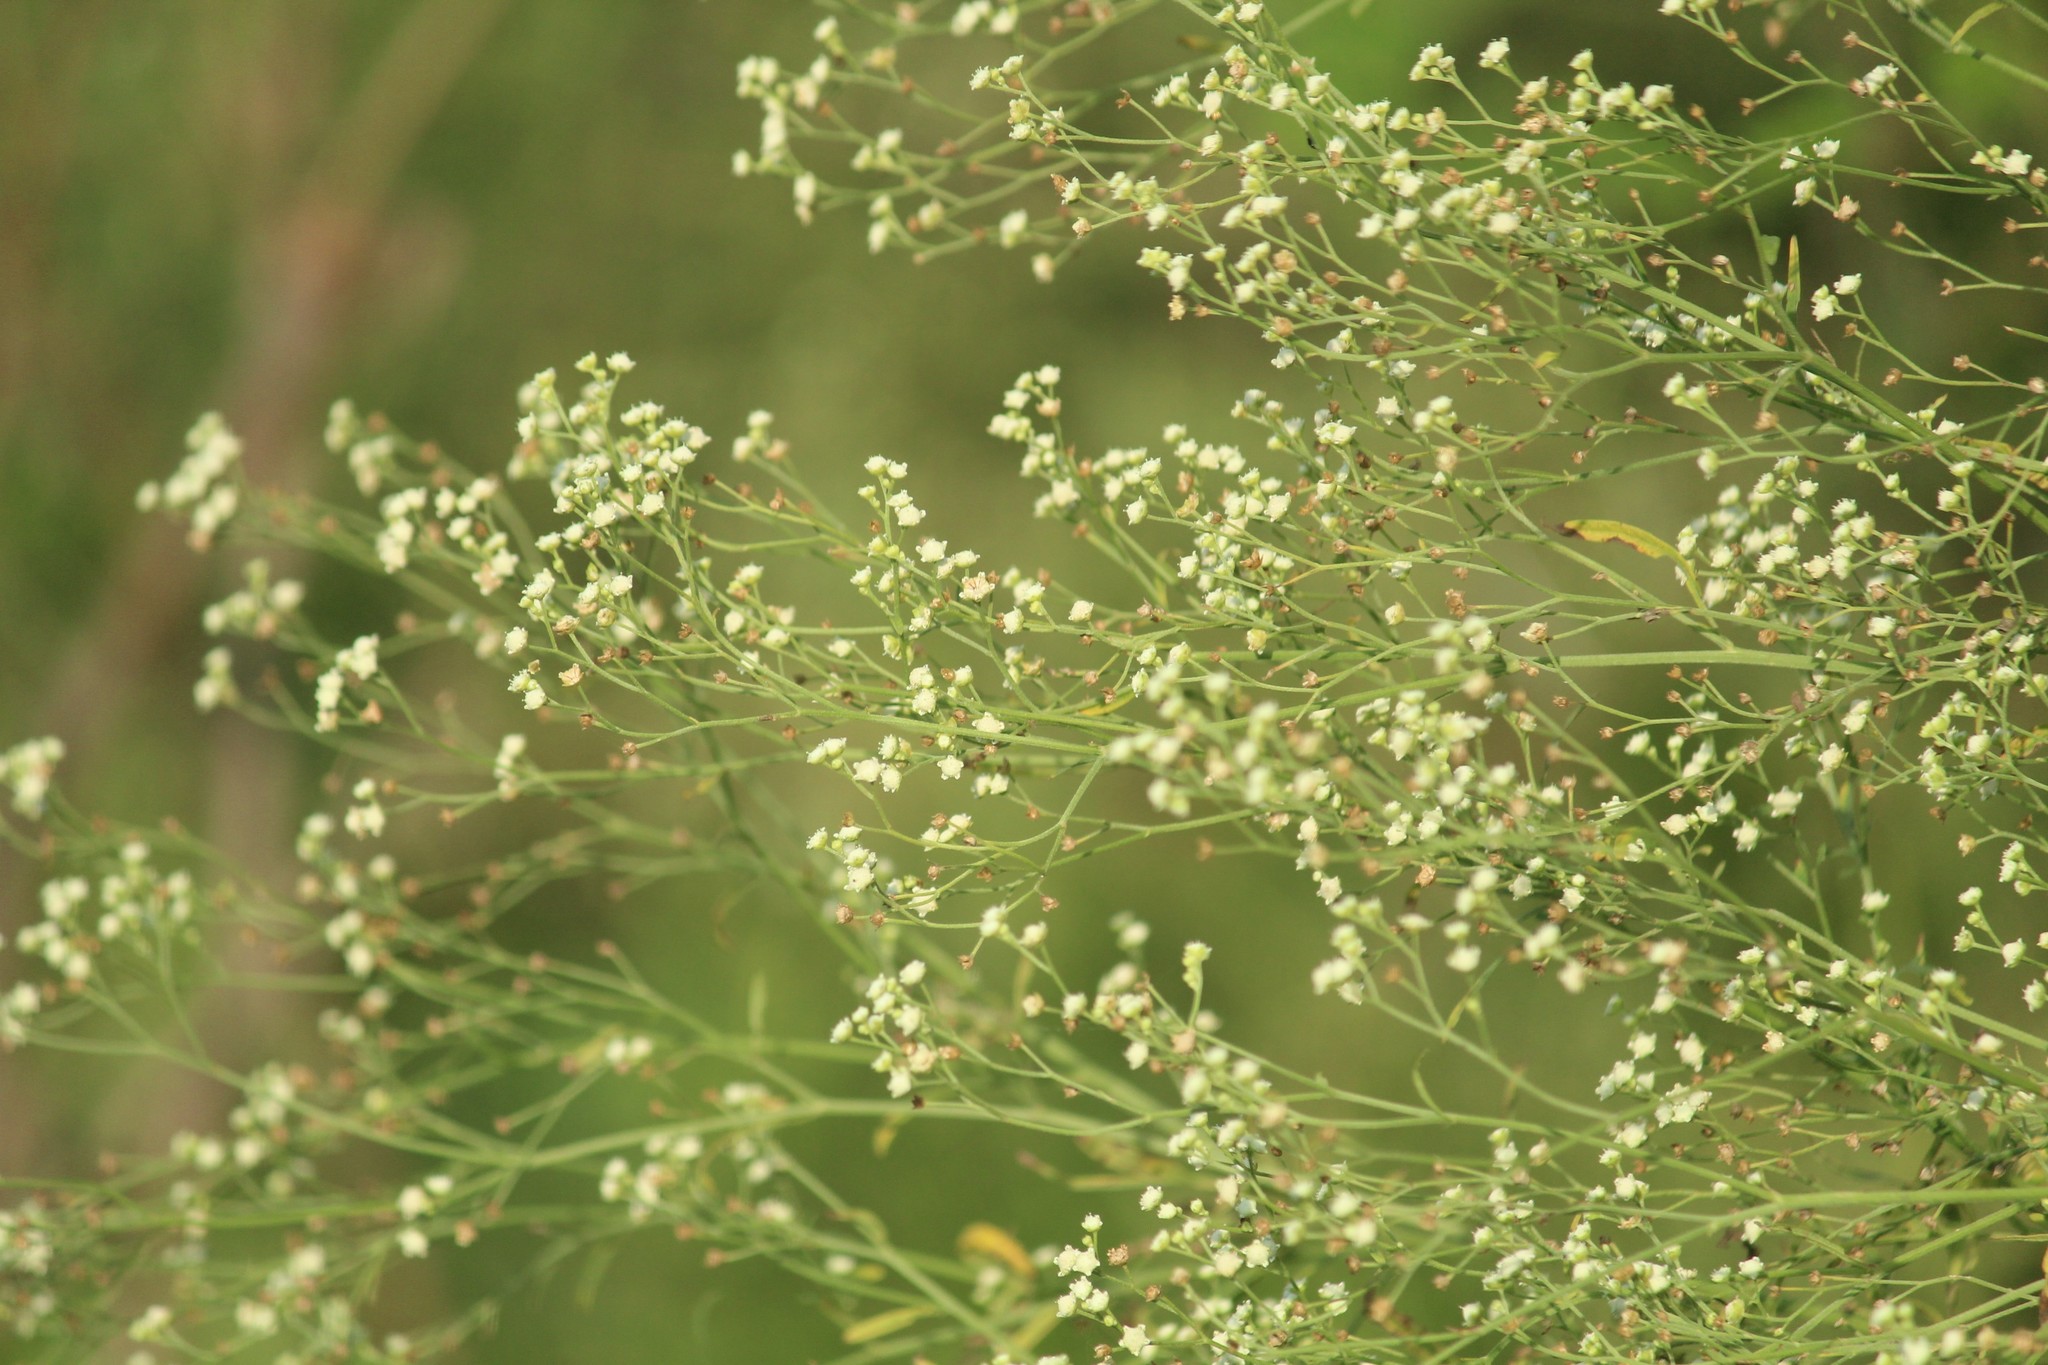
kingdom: Plantae
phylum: Tracheophyta
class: Magnoliopsida
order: Asterales
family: Asteraceae
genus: Parthenium
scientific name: Parthenium hysterophorus
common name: Santa maria feverfew
